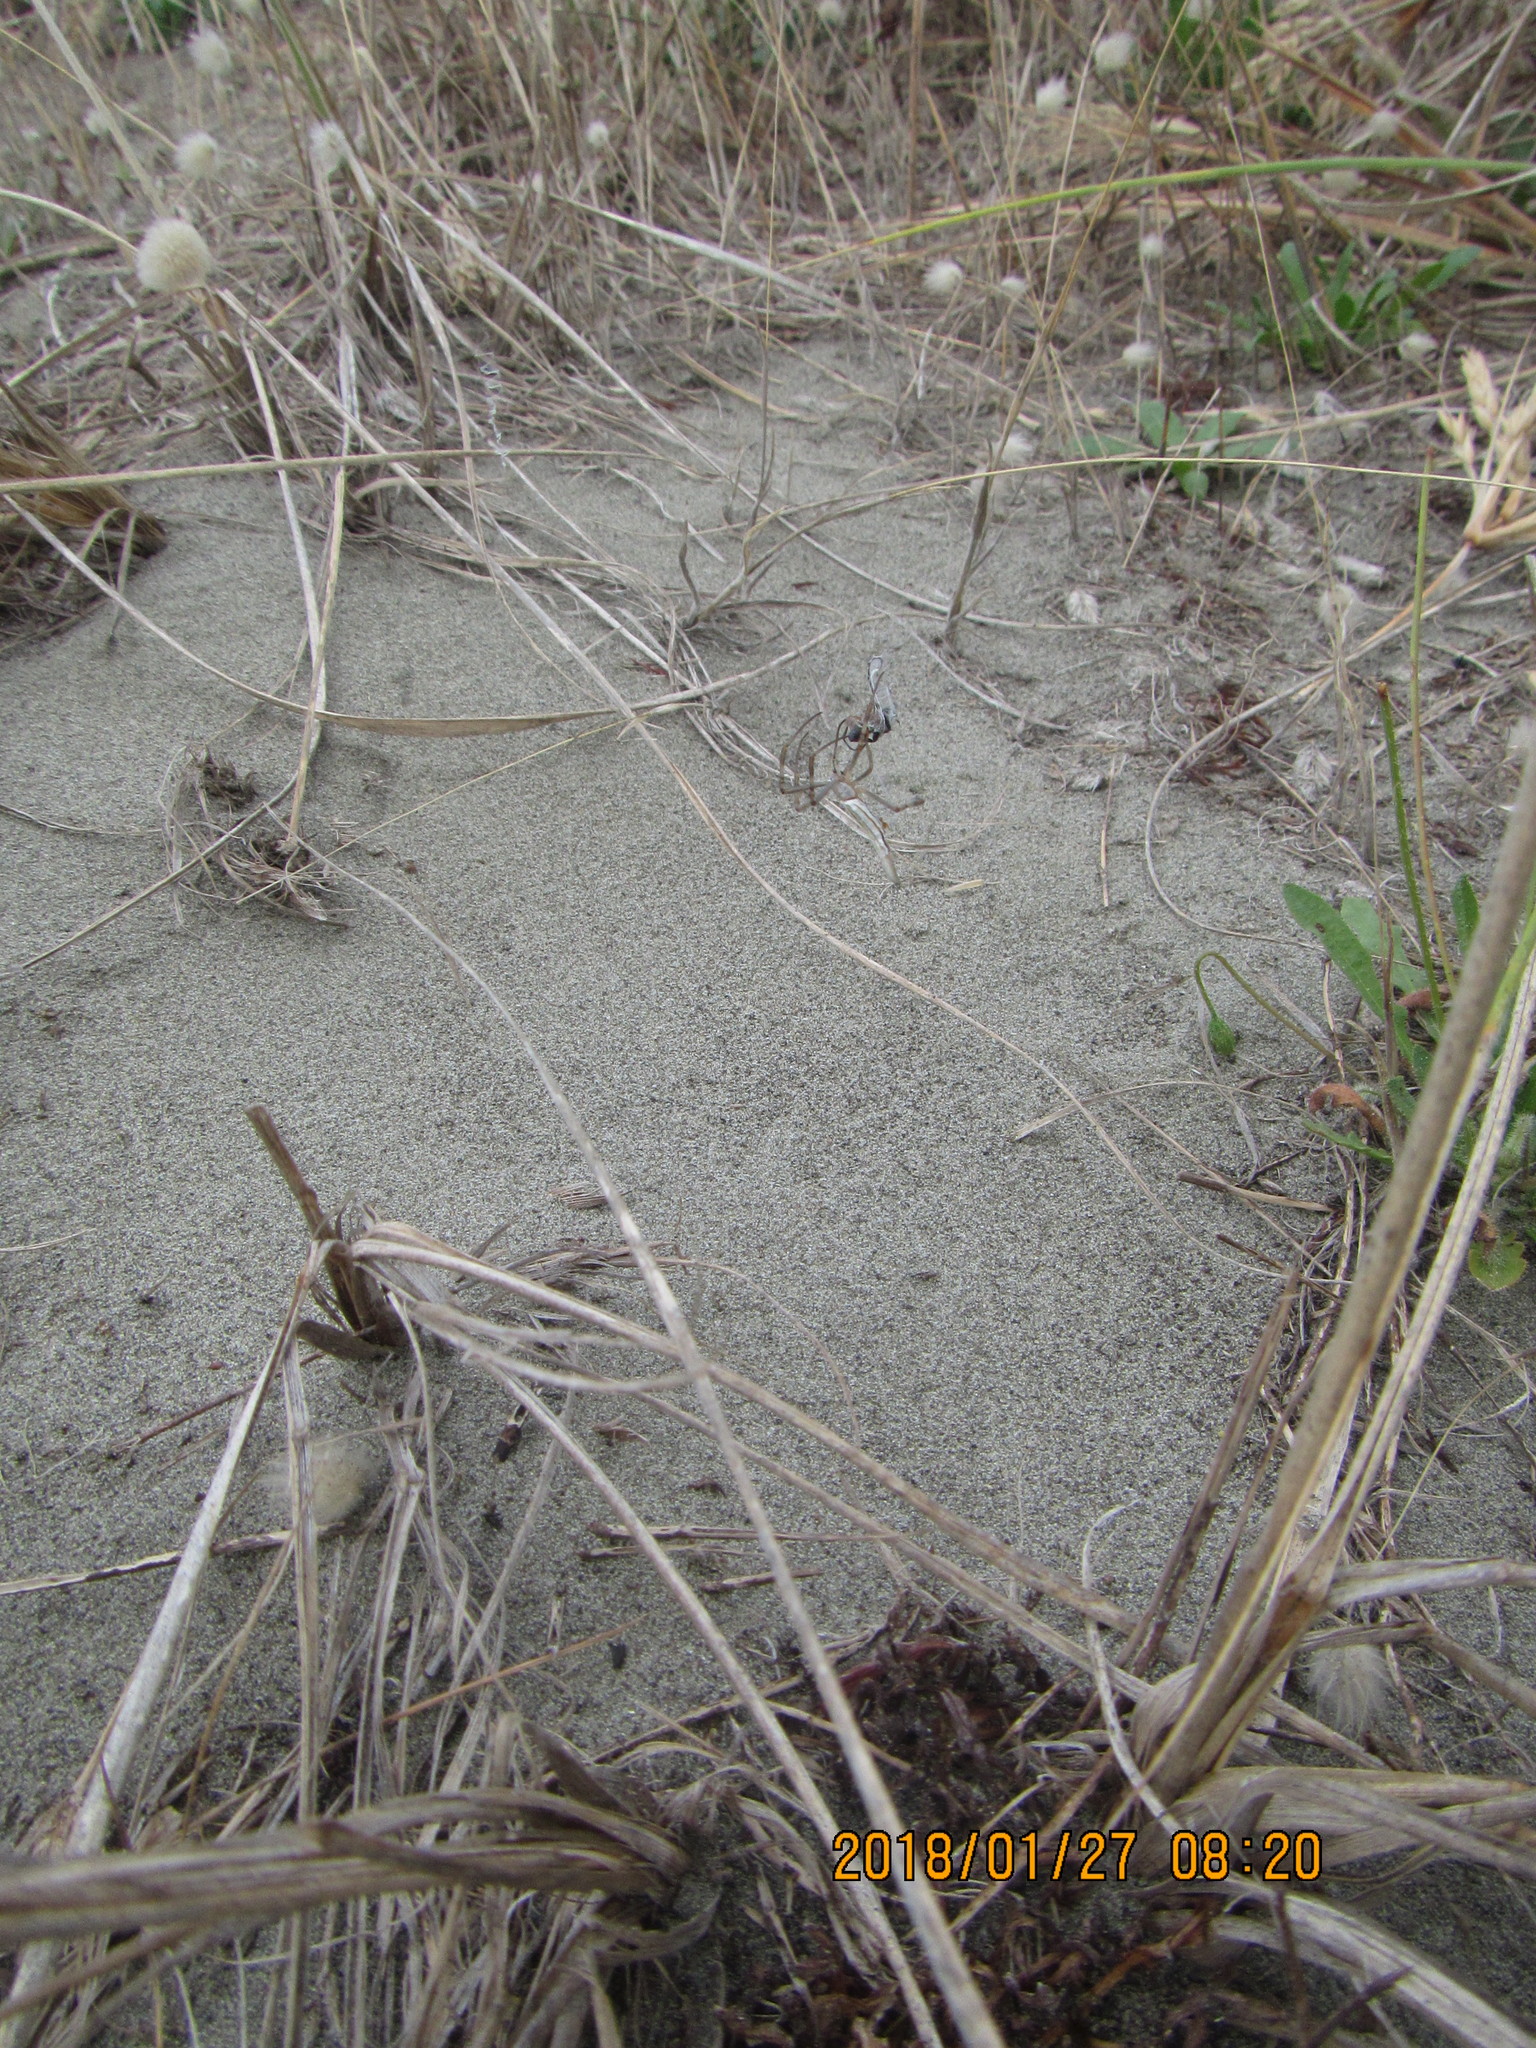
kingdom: Animalia
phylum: Arthropoda
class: Insecta
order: Hymenoptera
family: Sphecidae
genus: Podalonia
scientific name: Podalonia tydei
